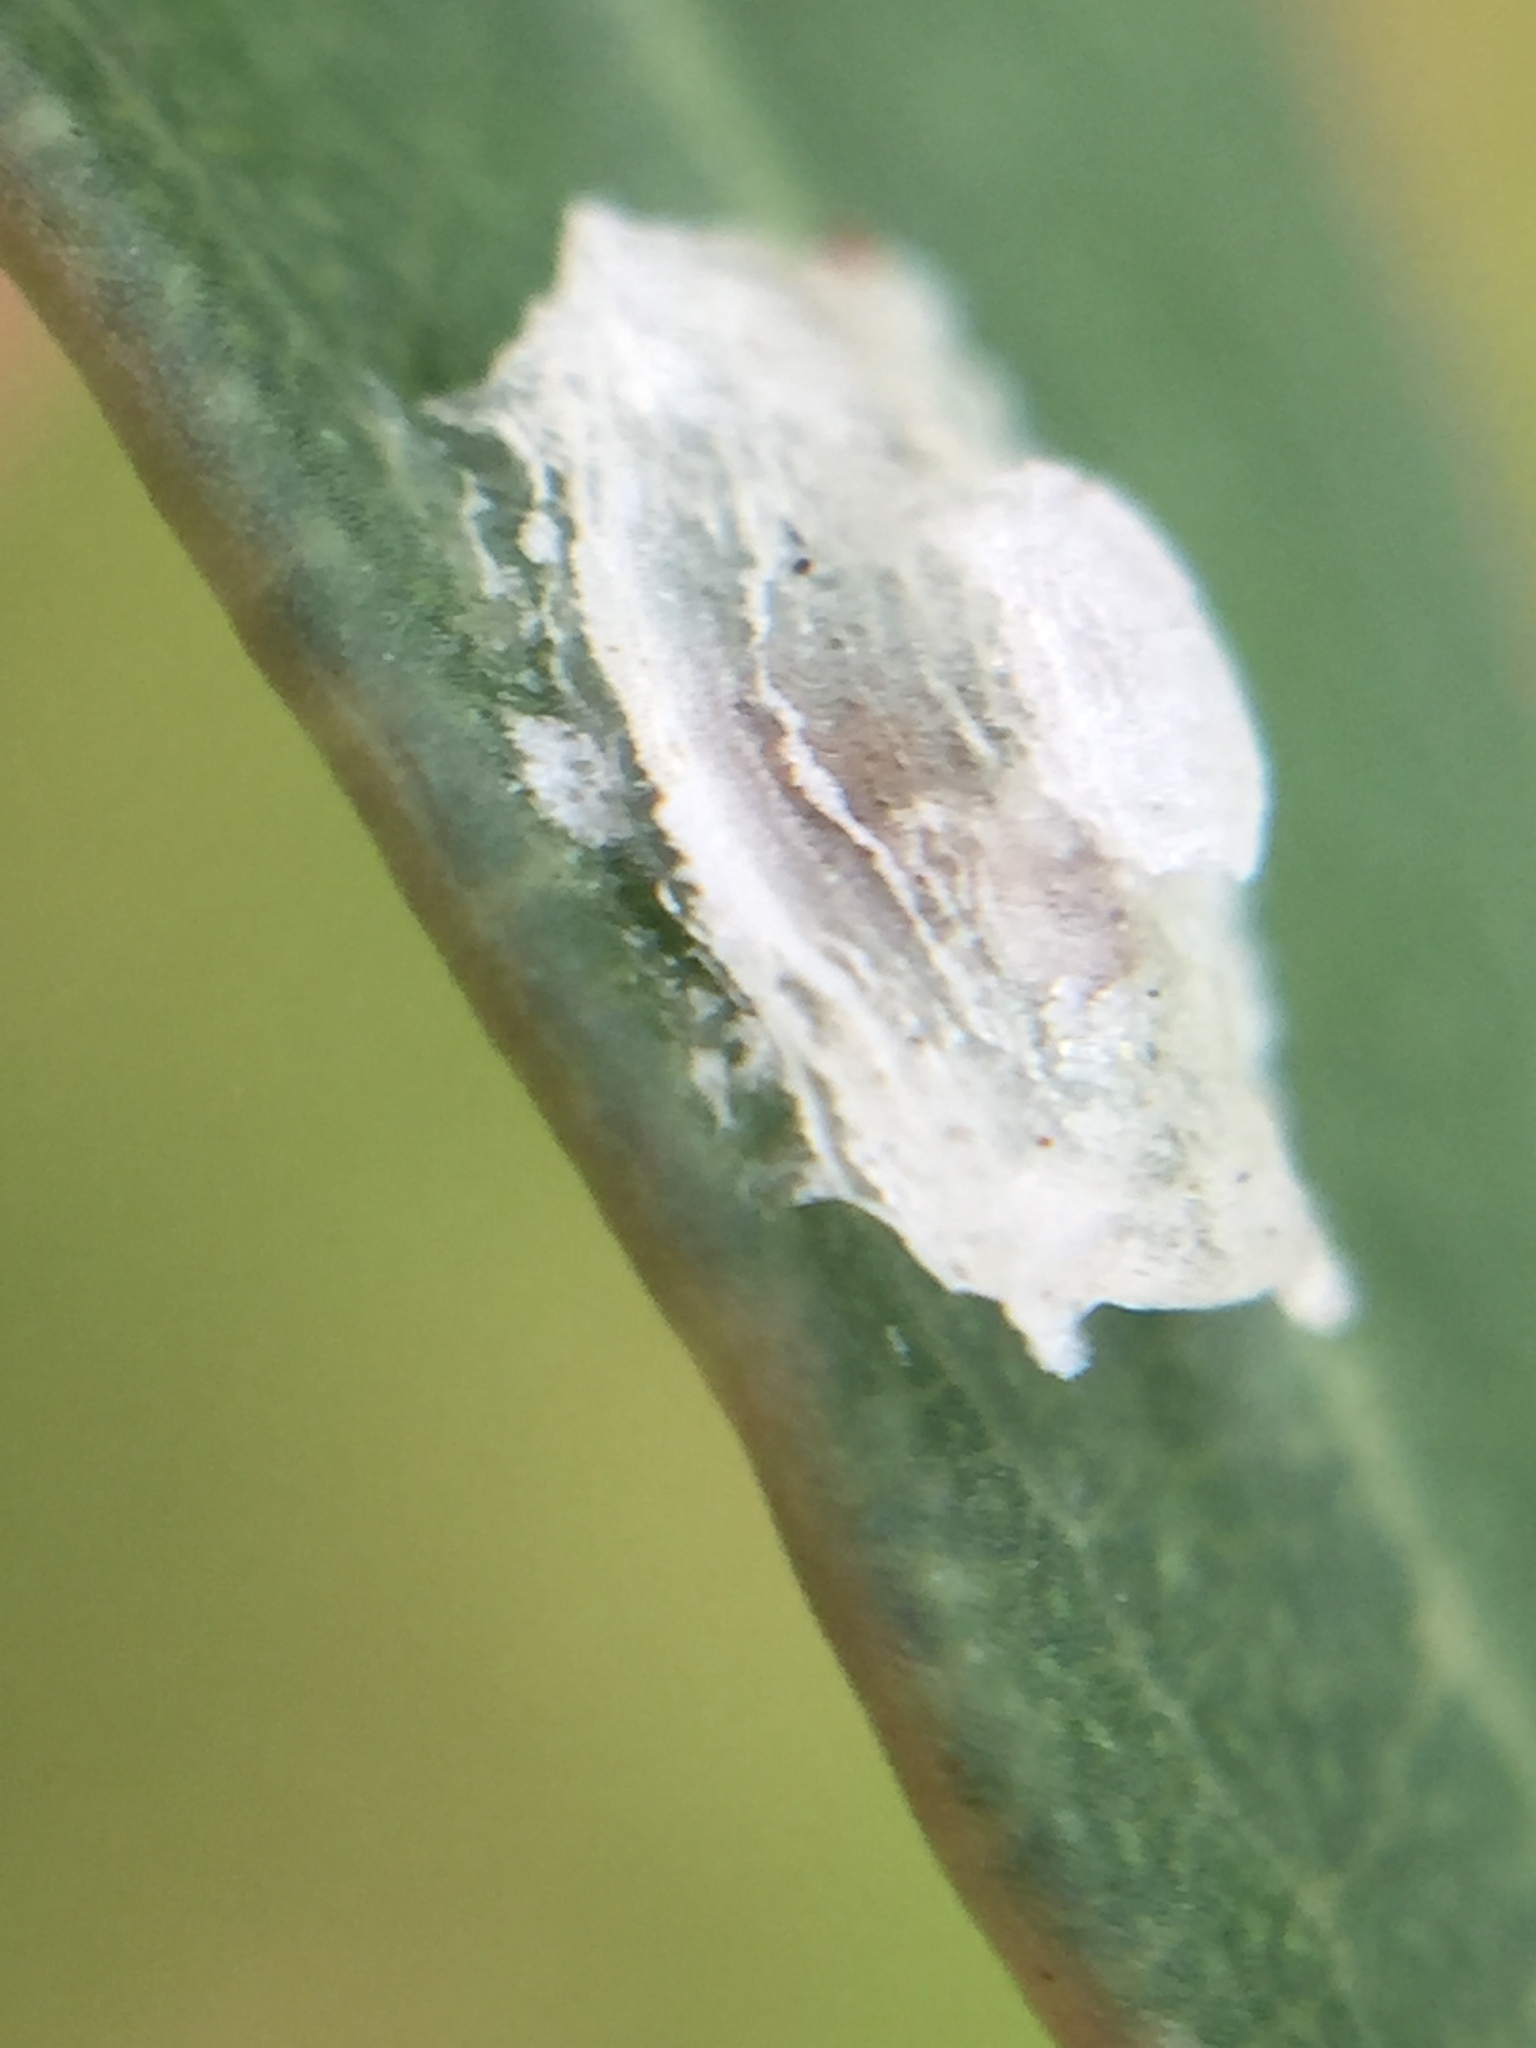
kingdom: Animalia
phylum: Arthropoda
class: Insecta
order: Hemiptera
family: Aphalaridae
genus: Glycaspis
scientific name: Glycaspis granulata
